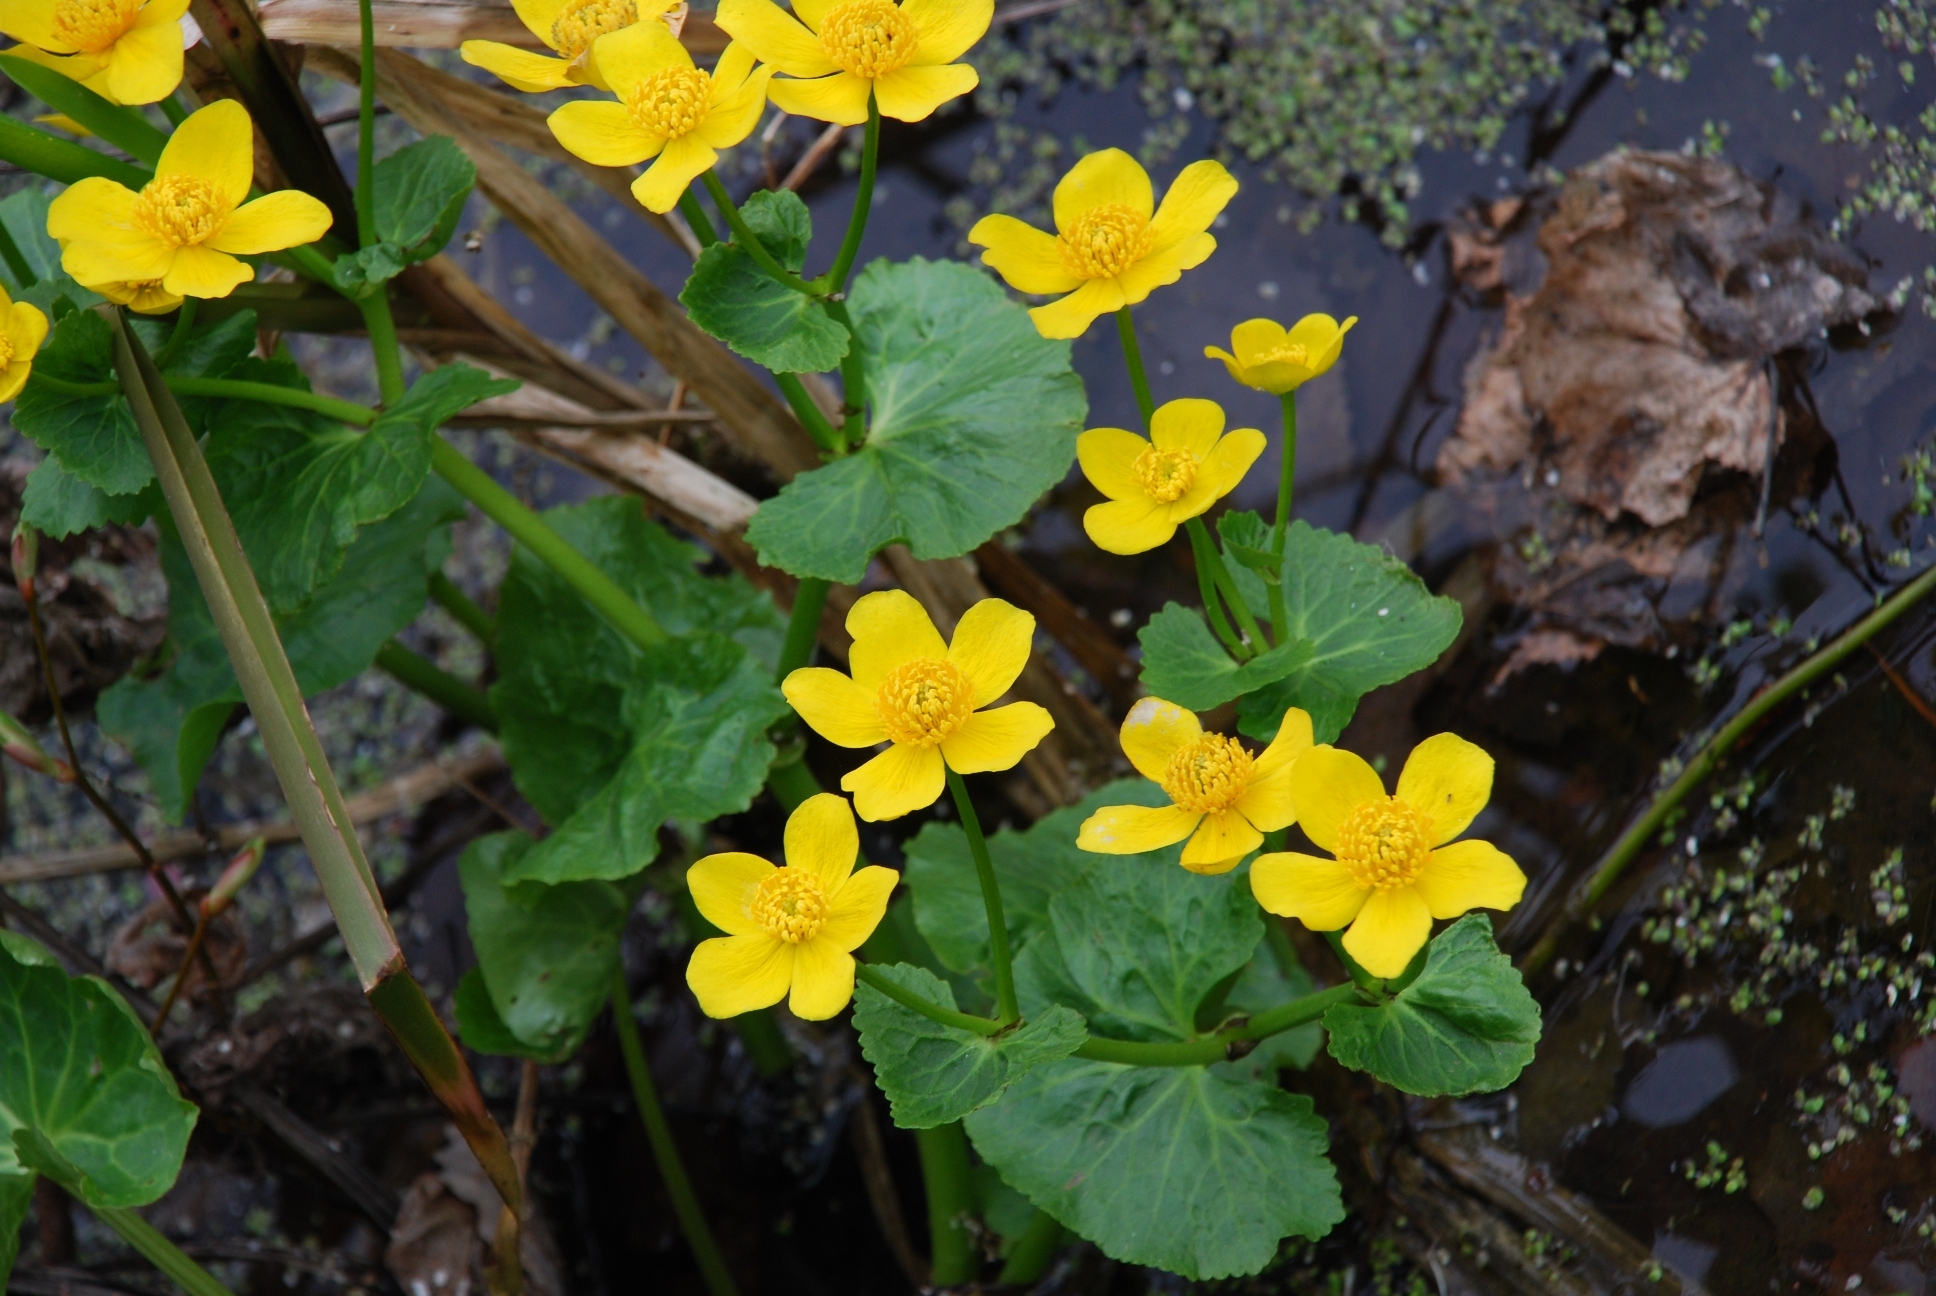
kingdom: Plantae
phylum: Tracheophyta
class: Magnoliopsida
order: Ranunculales
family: Ranunculaceae
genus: Caltha
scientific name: Caltha palustris
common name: Marsh marigold
